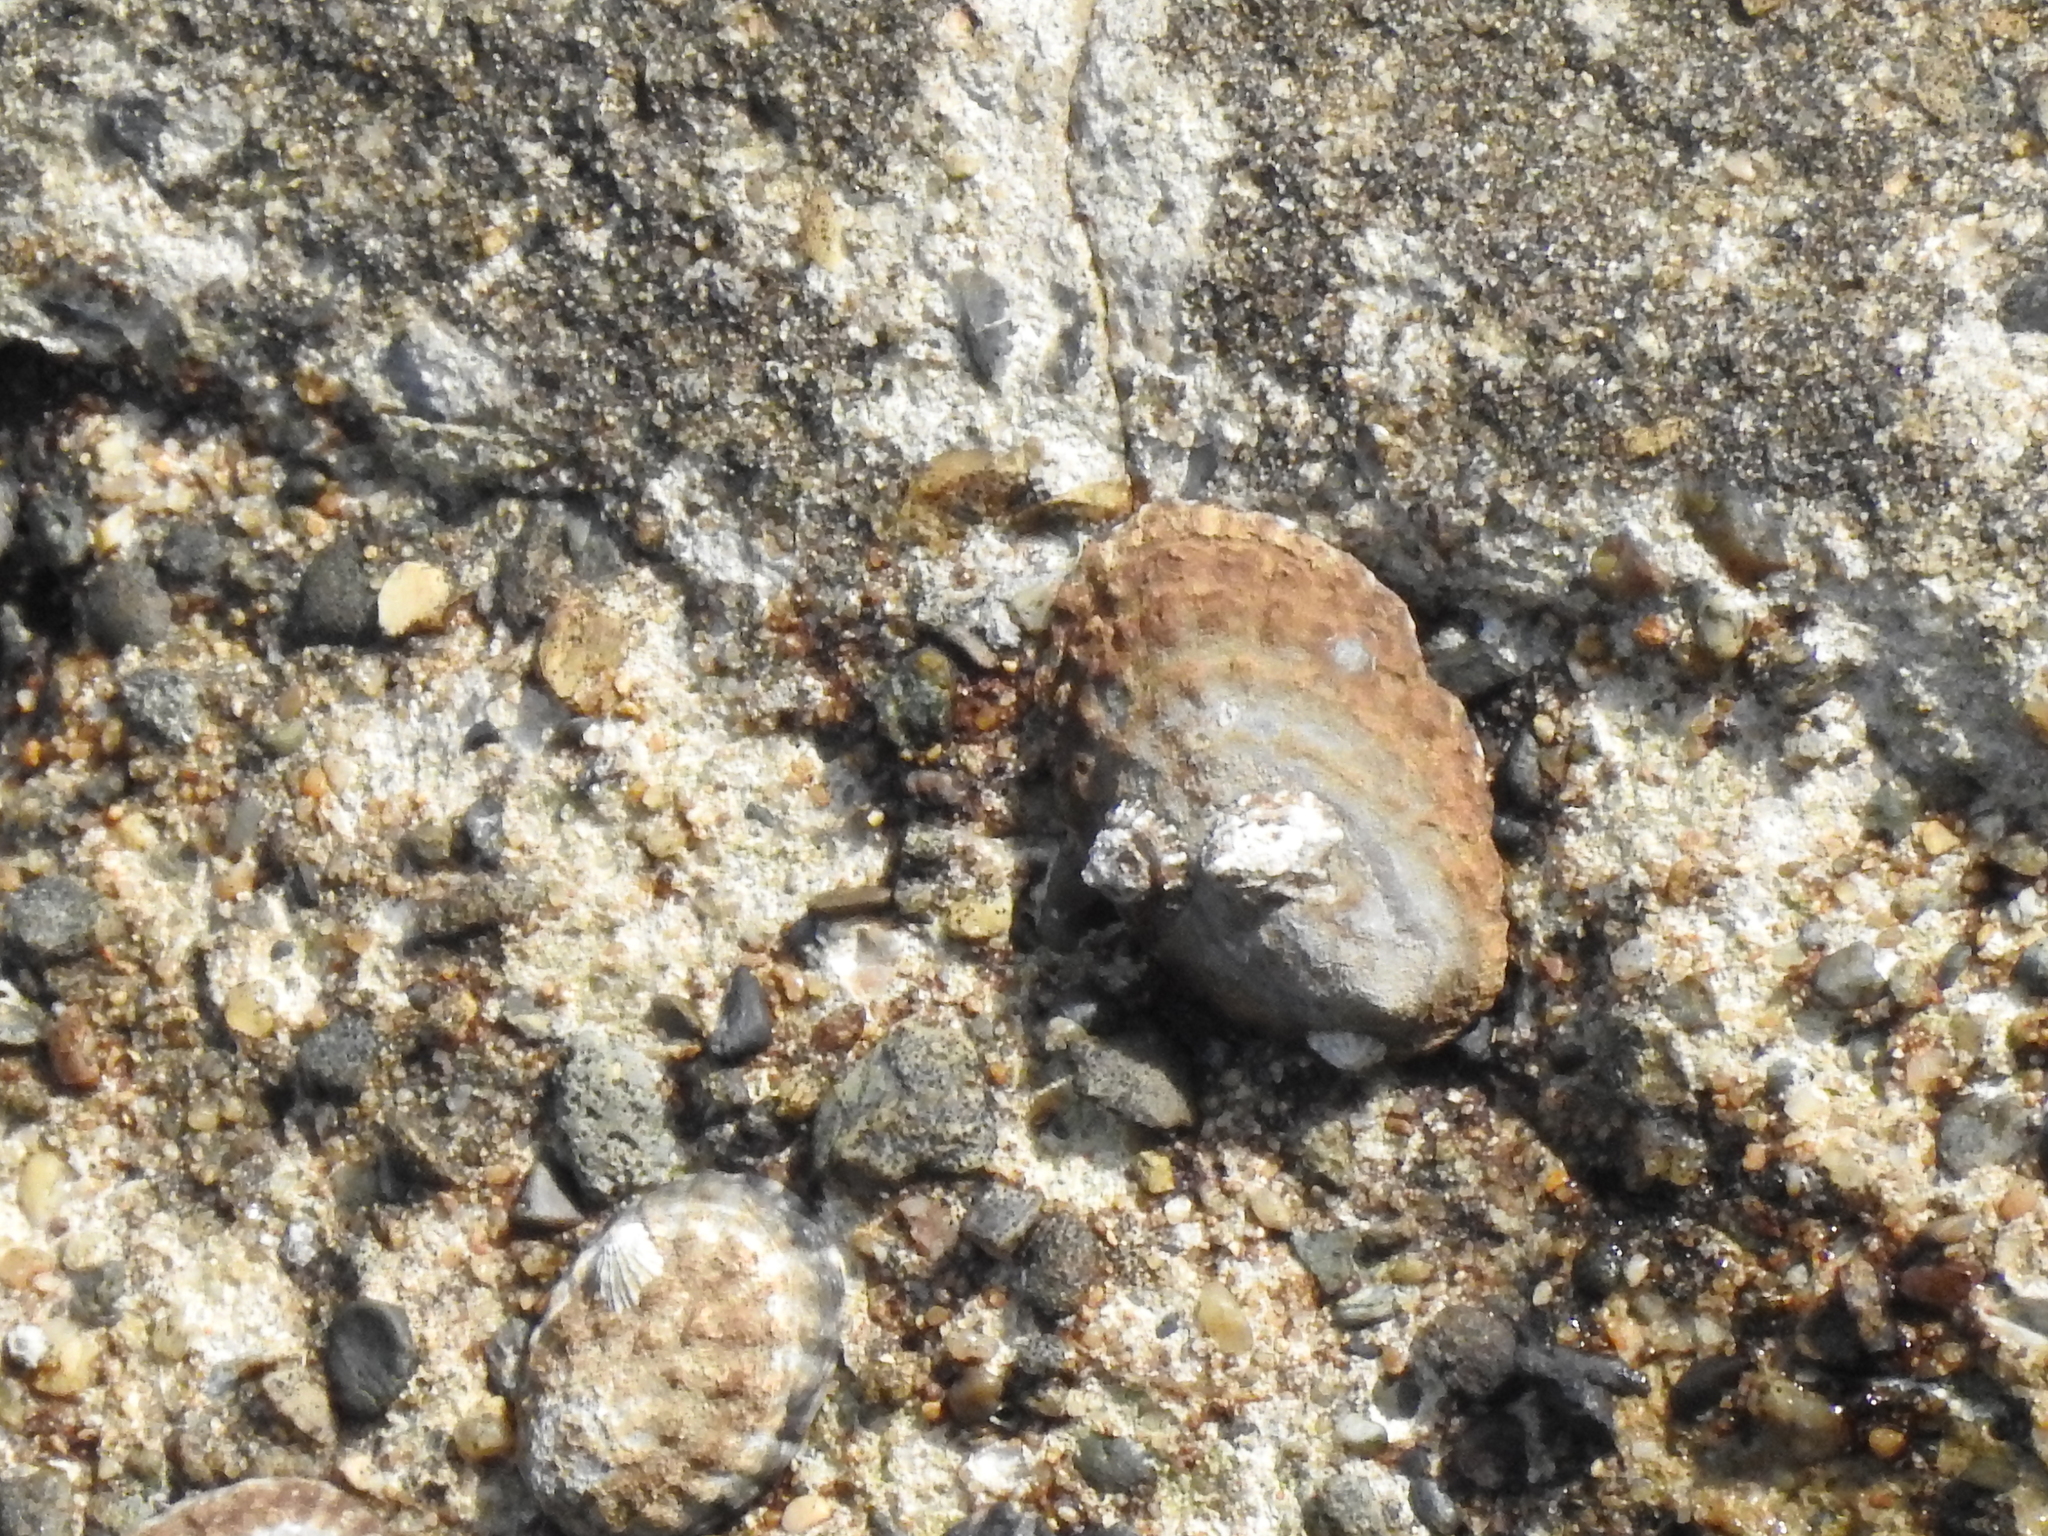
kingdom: Animalia
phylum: Mollusca
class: Gastropoda
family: Lottiidae
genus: Lottia
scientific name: Lottia gigantea
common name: Owl limpet
